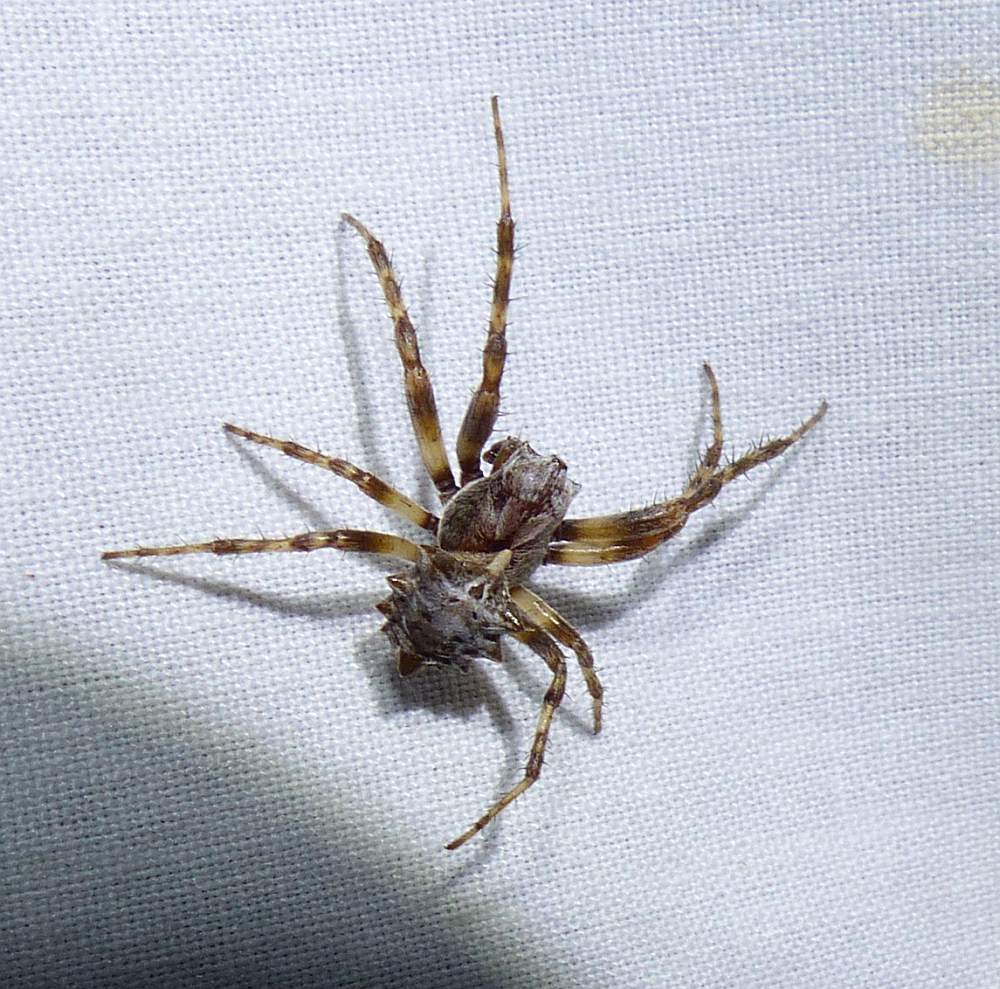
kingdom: Animalia
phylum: Arthropoda
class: Arachnida
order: Araneae
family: Araneidae
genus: Acanthepeira
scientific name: Acanthepeira stellata
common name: Starbellied orbweaver
